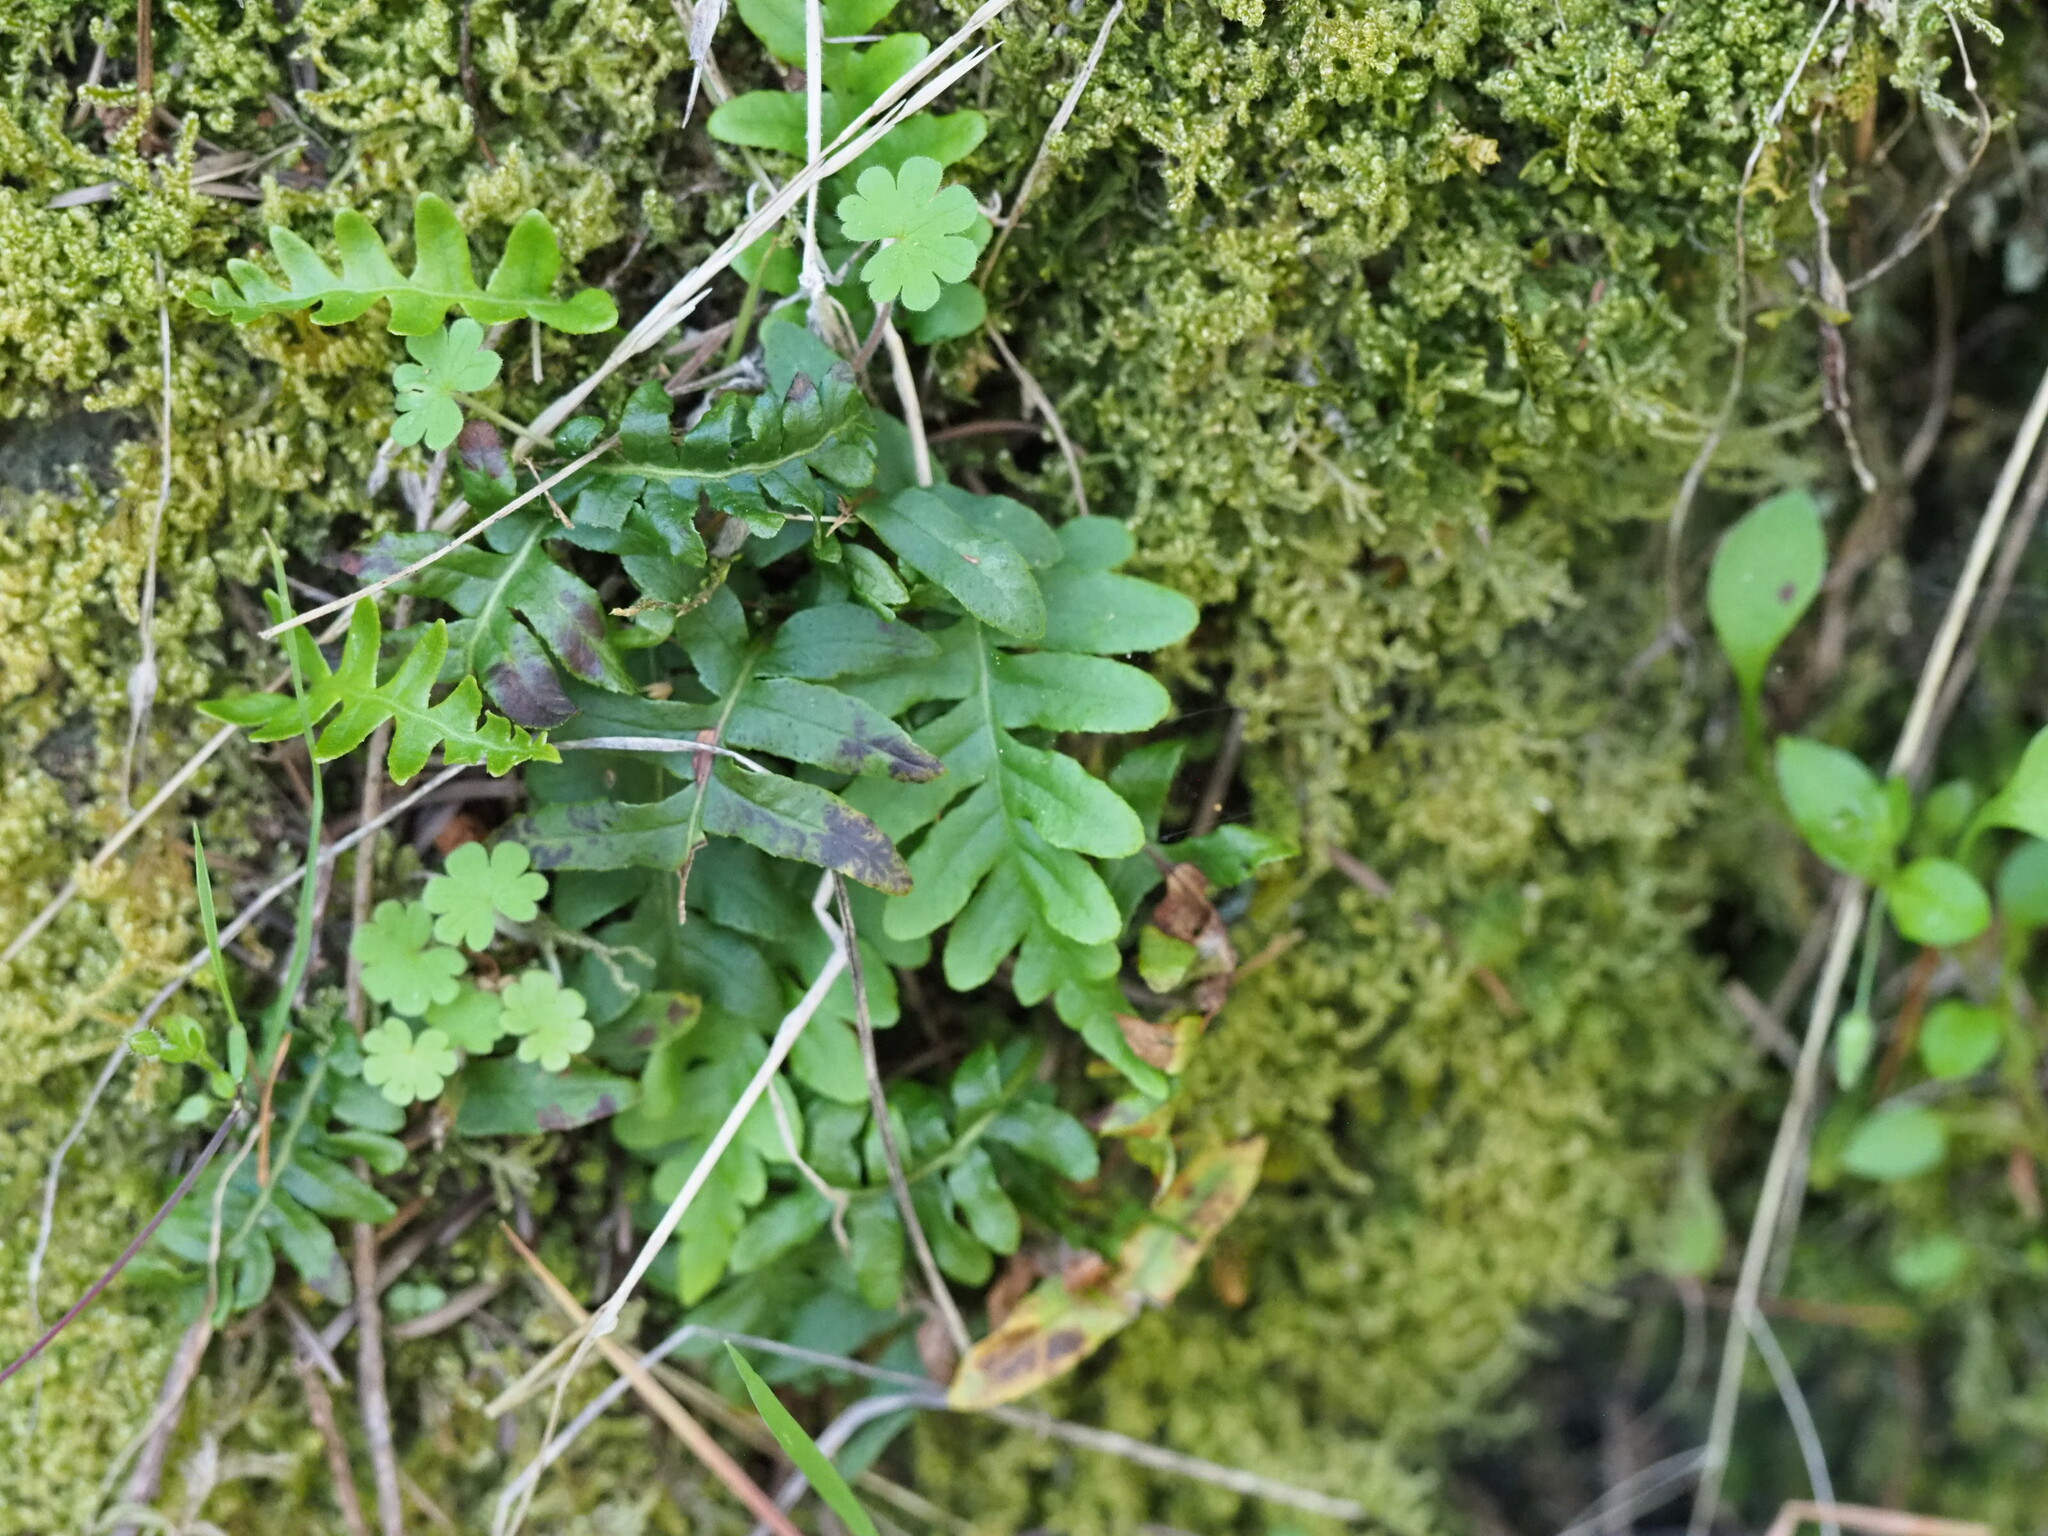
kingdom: Plantae
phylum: Tracheophyta
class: Polypodiopsida
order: Polypodiales
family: Polypodiaceae
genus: Polypodium
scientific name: Polypodium glycyrrhiza
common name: Licorice fern
